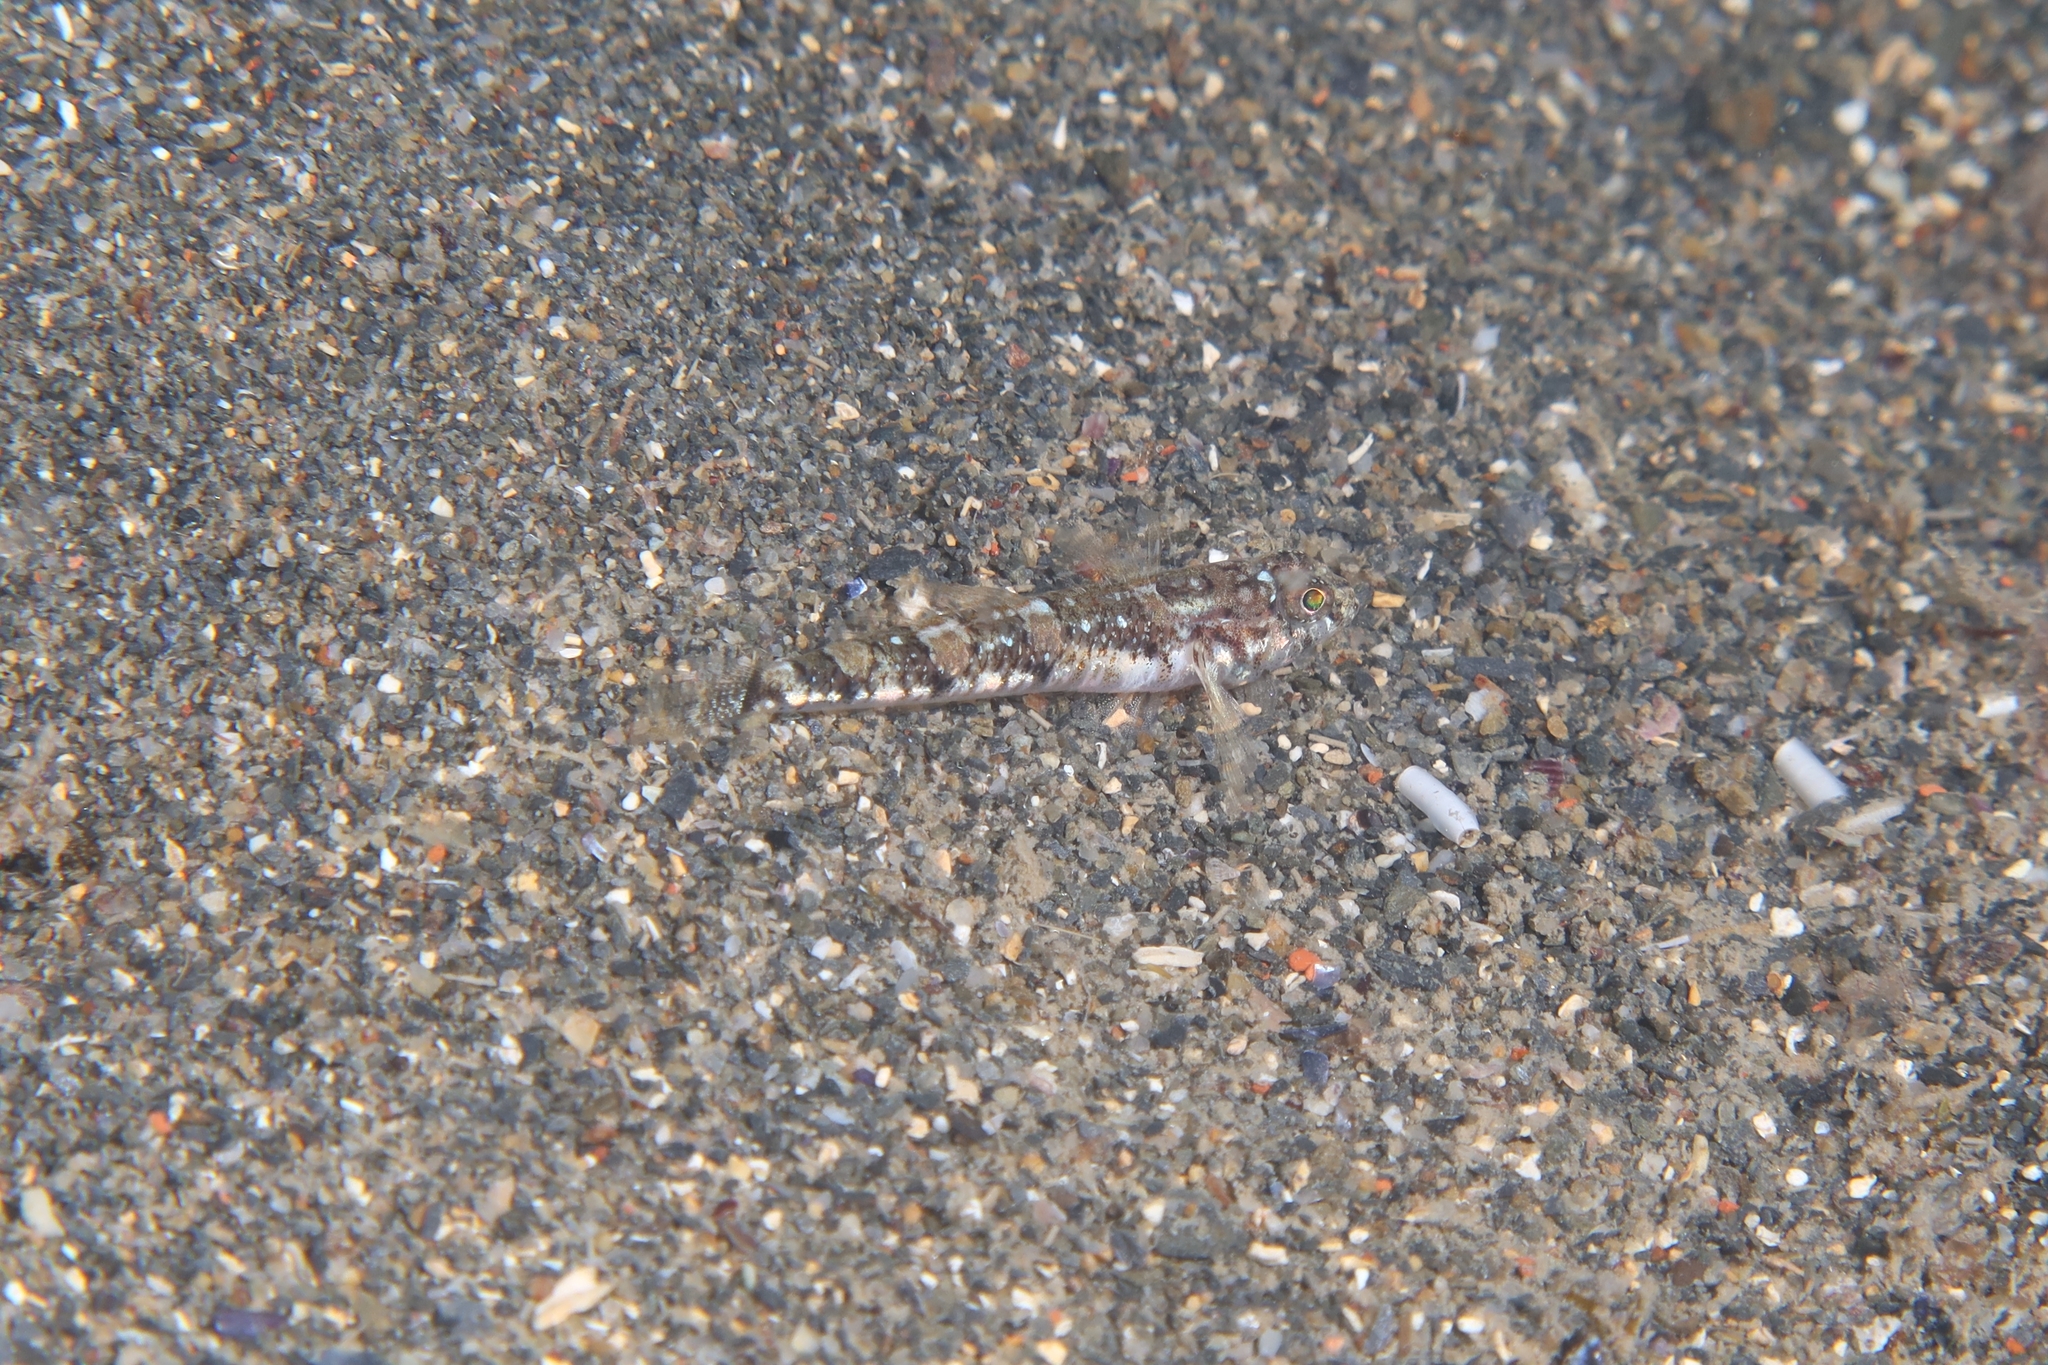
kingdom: Animalia
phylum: Chordata
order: Perciformes
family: Gobiidae
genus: Buenia
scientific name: Buenia affinis
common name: De buen's goby
